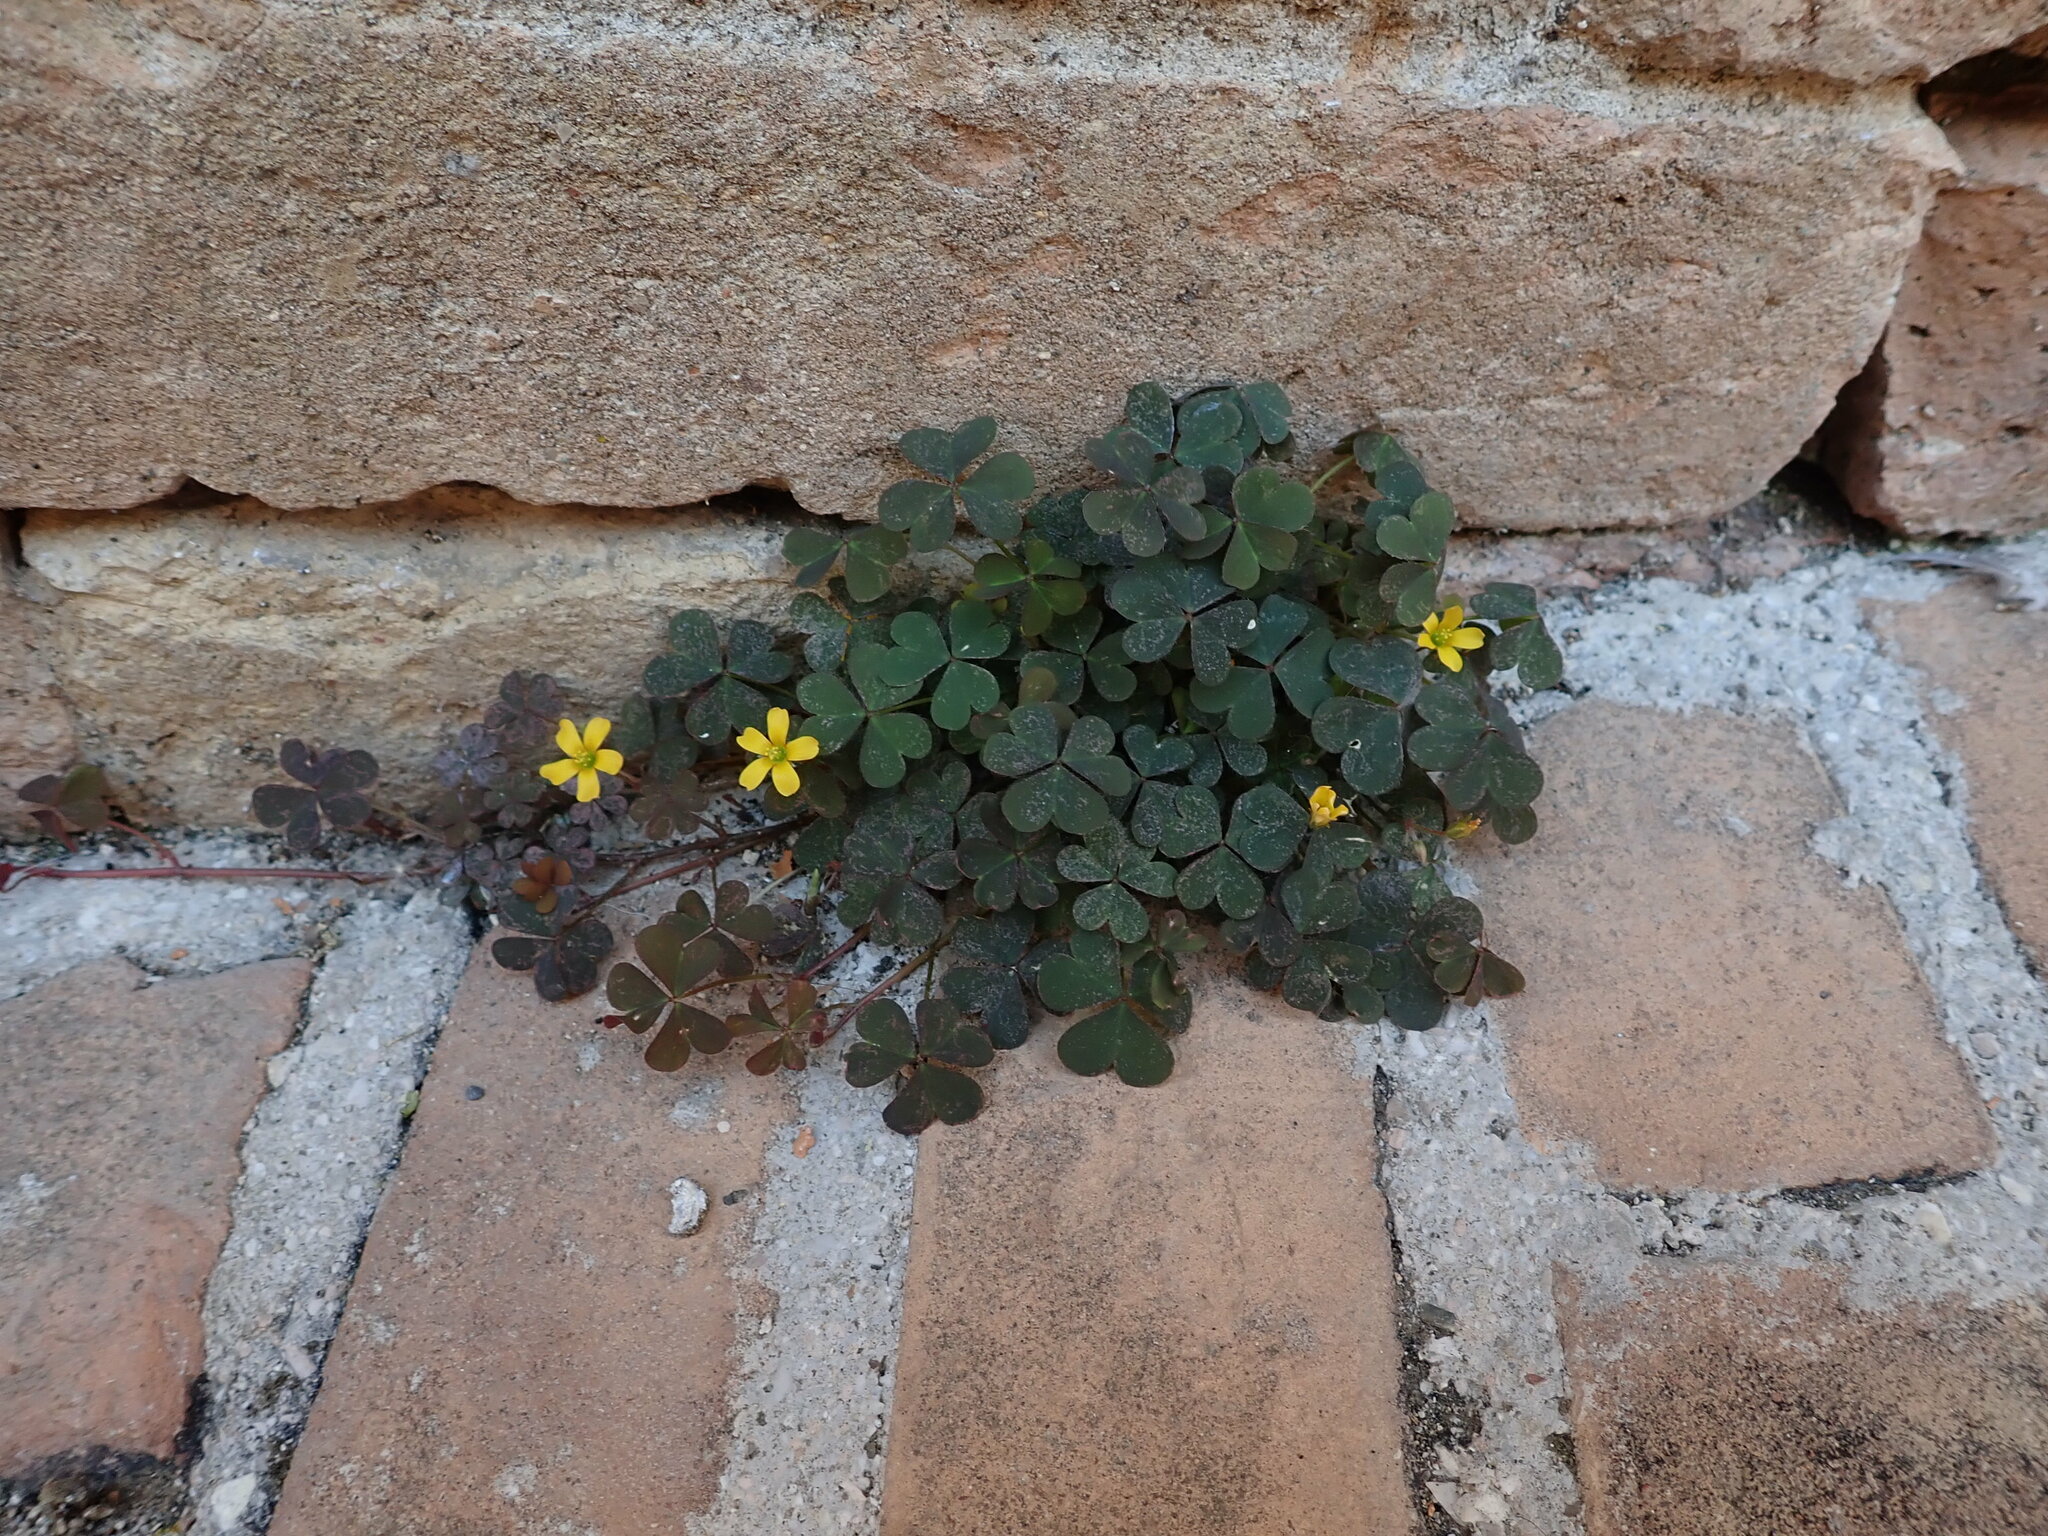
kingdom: Plantae
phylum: Tracheophyta
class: Magnoliopsida
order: Oxalidales
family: Oxalidaceae
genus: Oxalis
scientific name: Oxalis corniculata
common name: Procumbent yellow-sorrel
